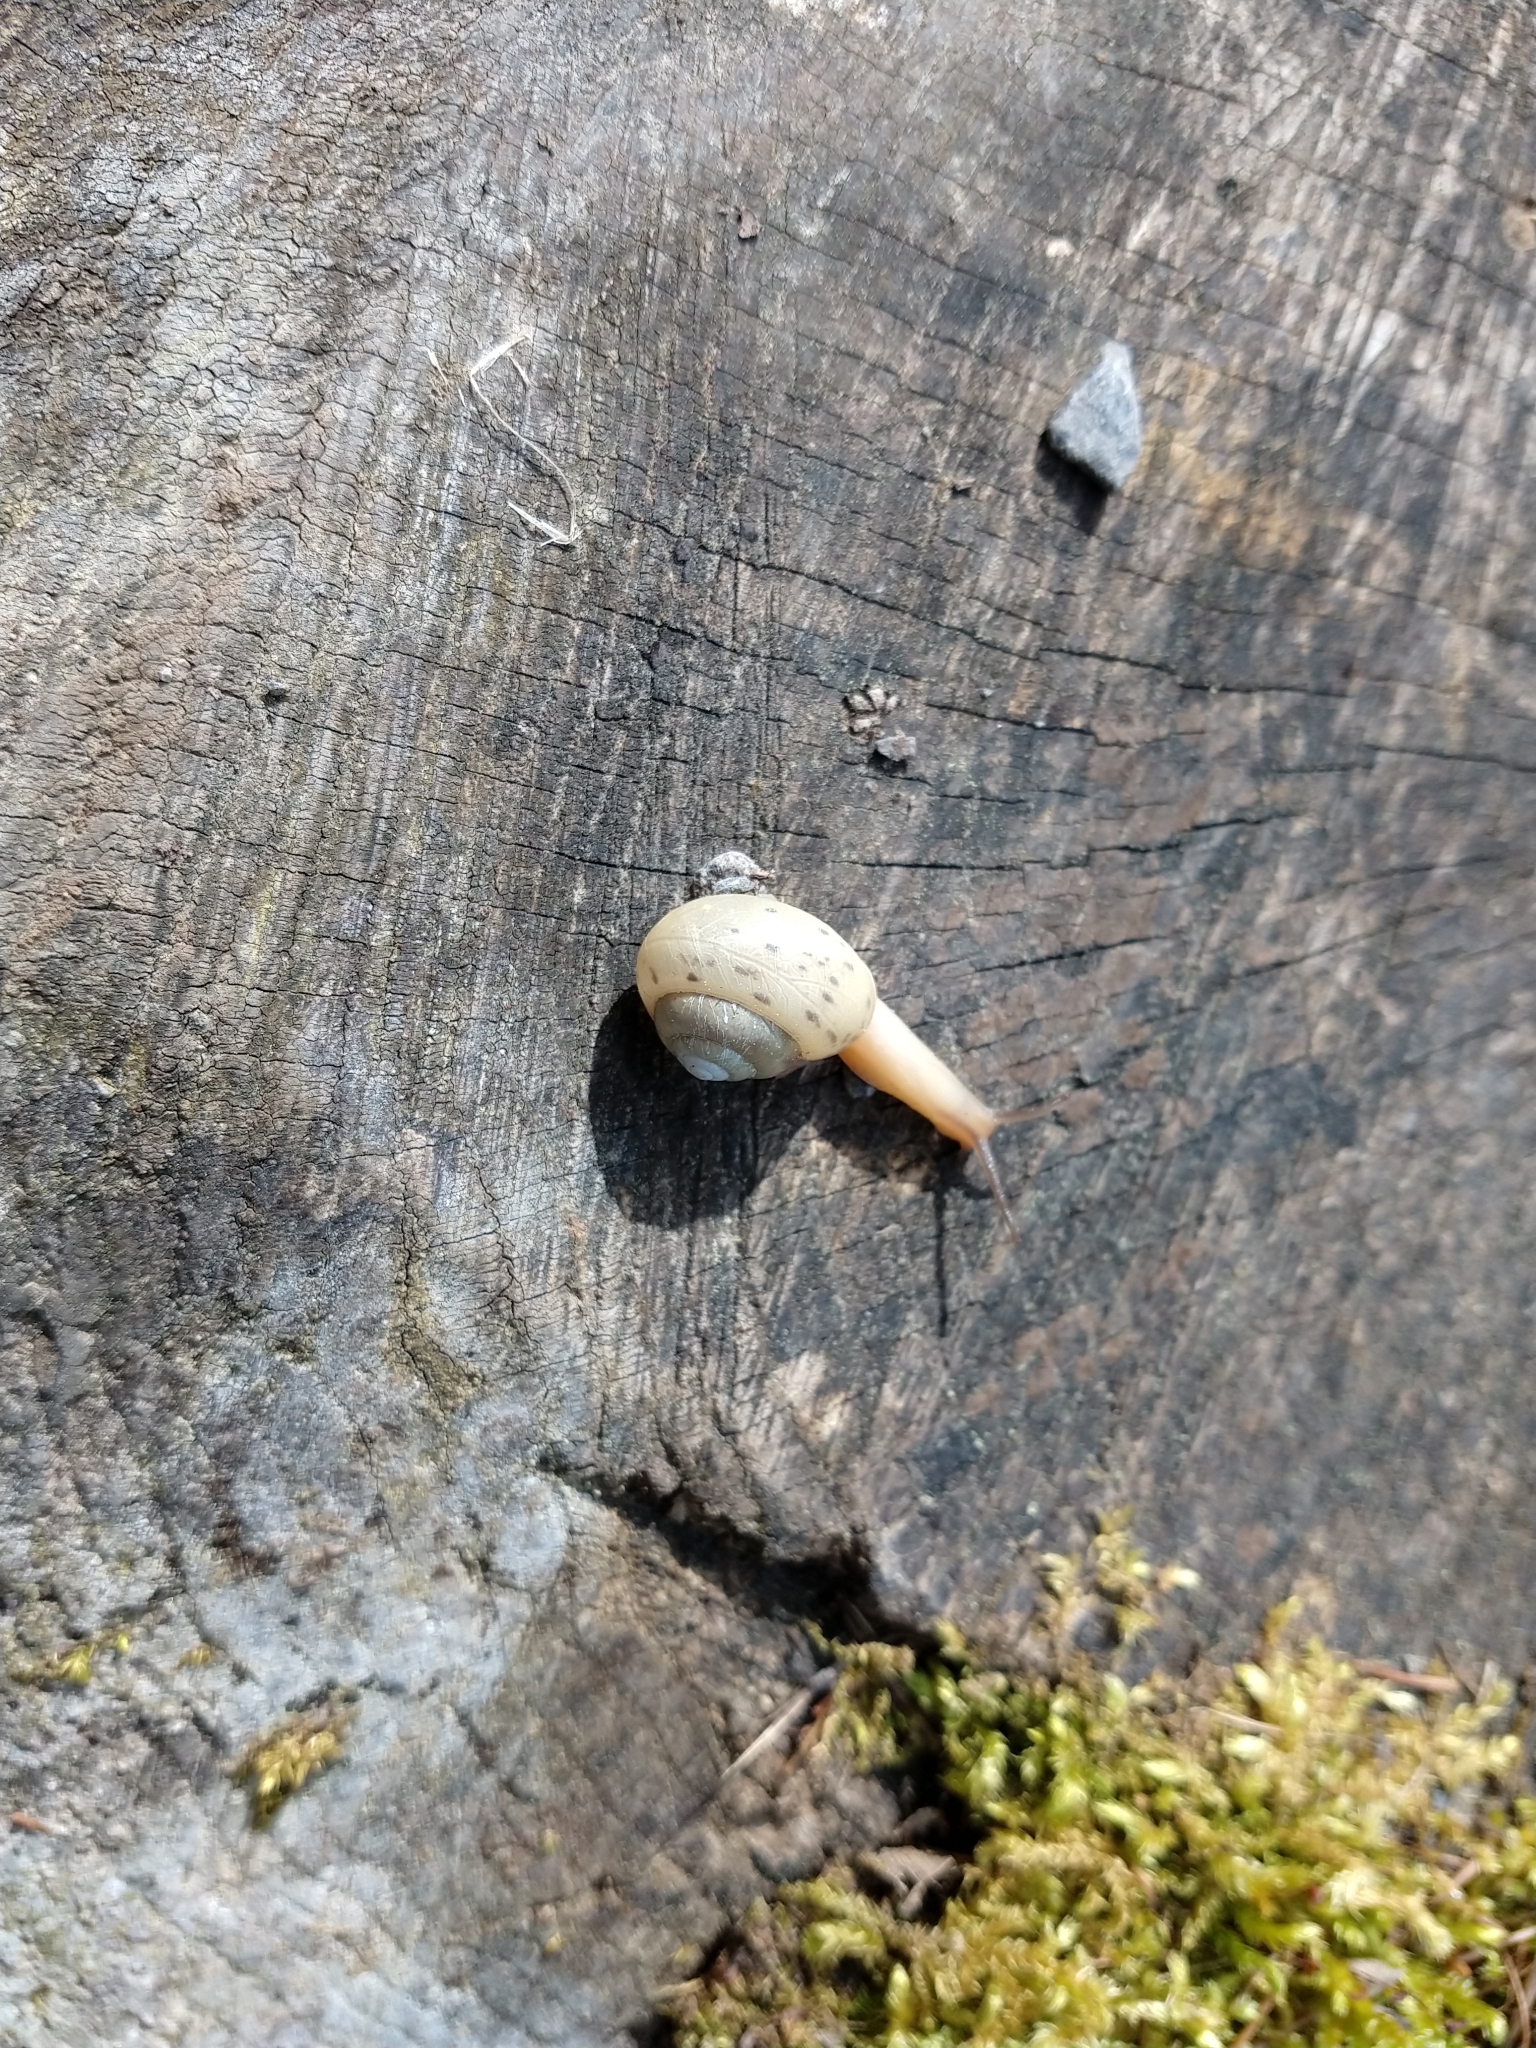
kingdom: Animalia
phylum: Mollusca
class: Gastropoda
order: Stylommatophora
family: Camaenidae
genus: Fruticicola
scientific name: Fruticicola fruticum
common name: Bush snail
